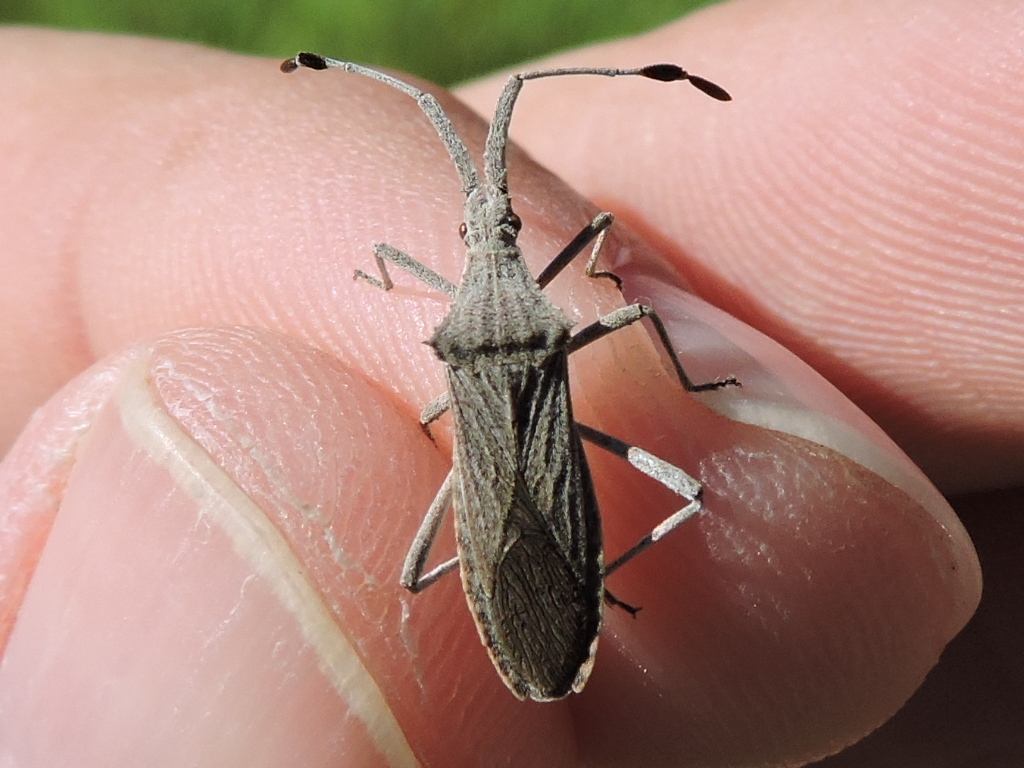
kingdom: Animalia
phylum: Arthropoda
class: Insecta
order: Hemiptera
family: Coreidae
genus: Chariesterus
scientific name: Chariesterus antennator
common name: Flat horned coreid
